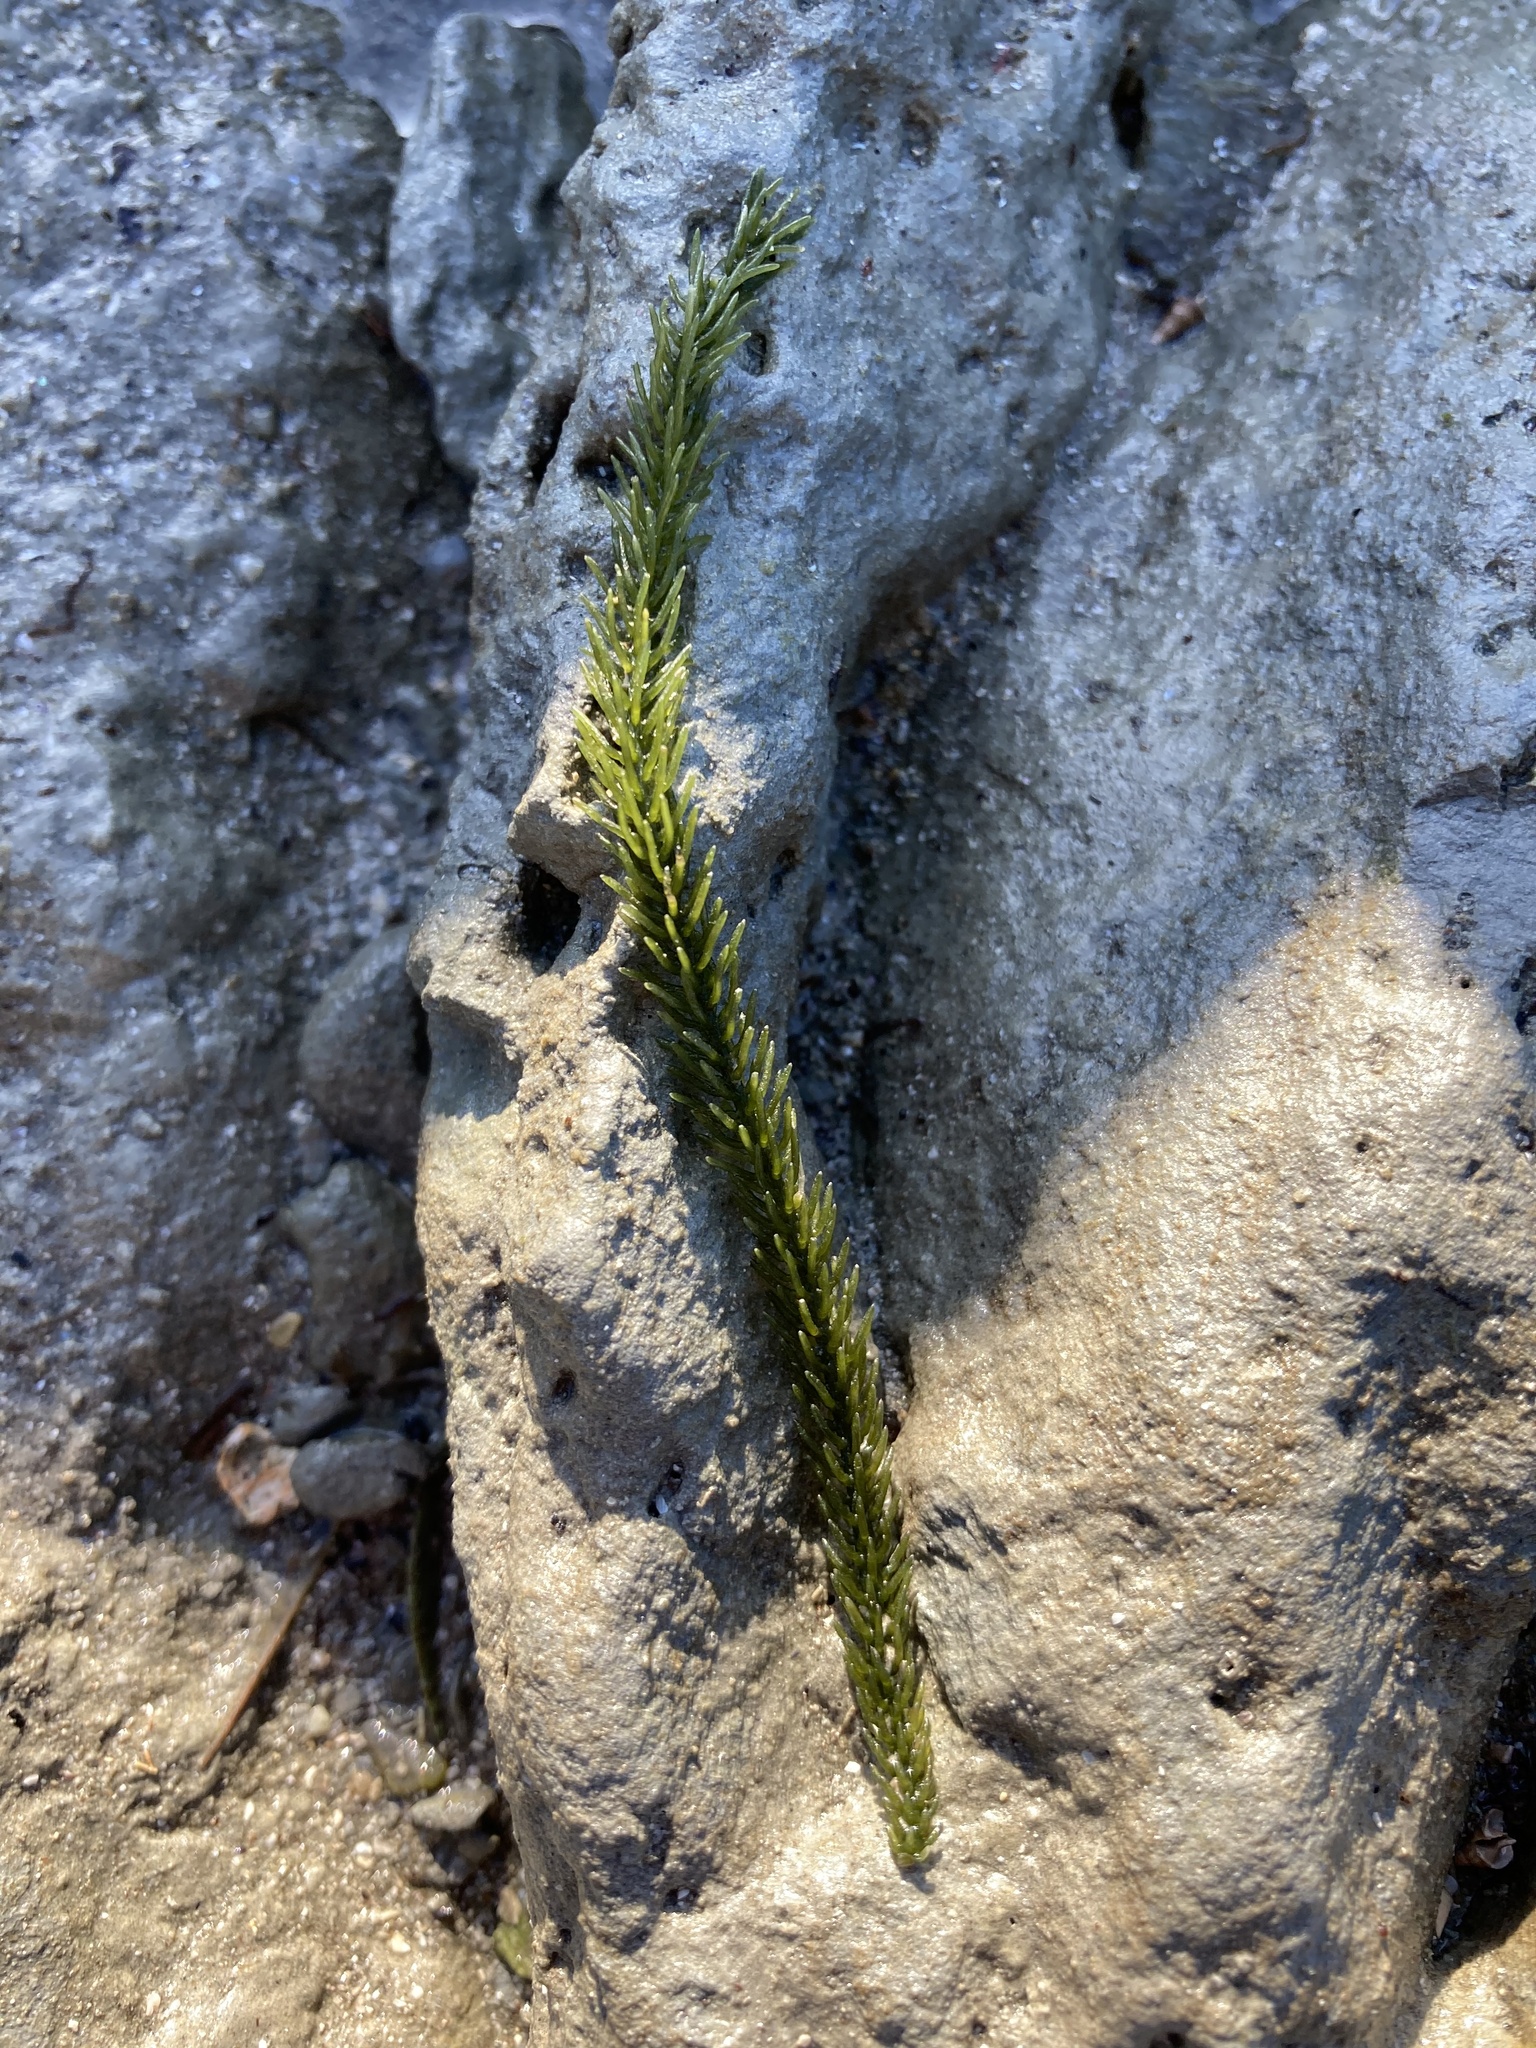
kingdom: Plantae
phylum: Chlorophyta
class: Ulvophyceae
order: Bryopsidales
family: Caulerpaceae
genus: Caulerpa
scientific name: Caulerpa brownii
